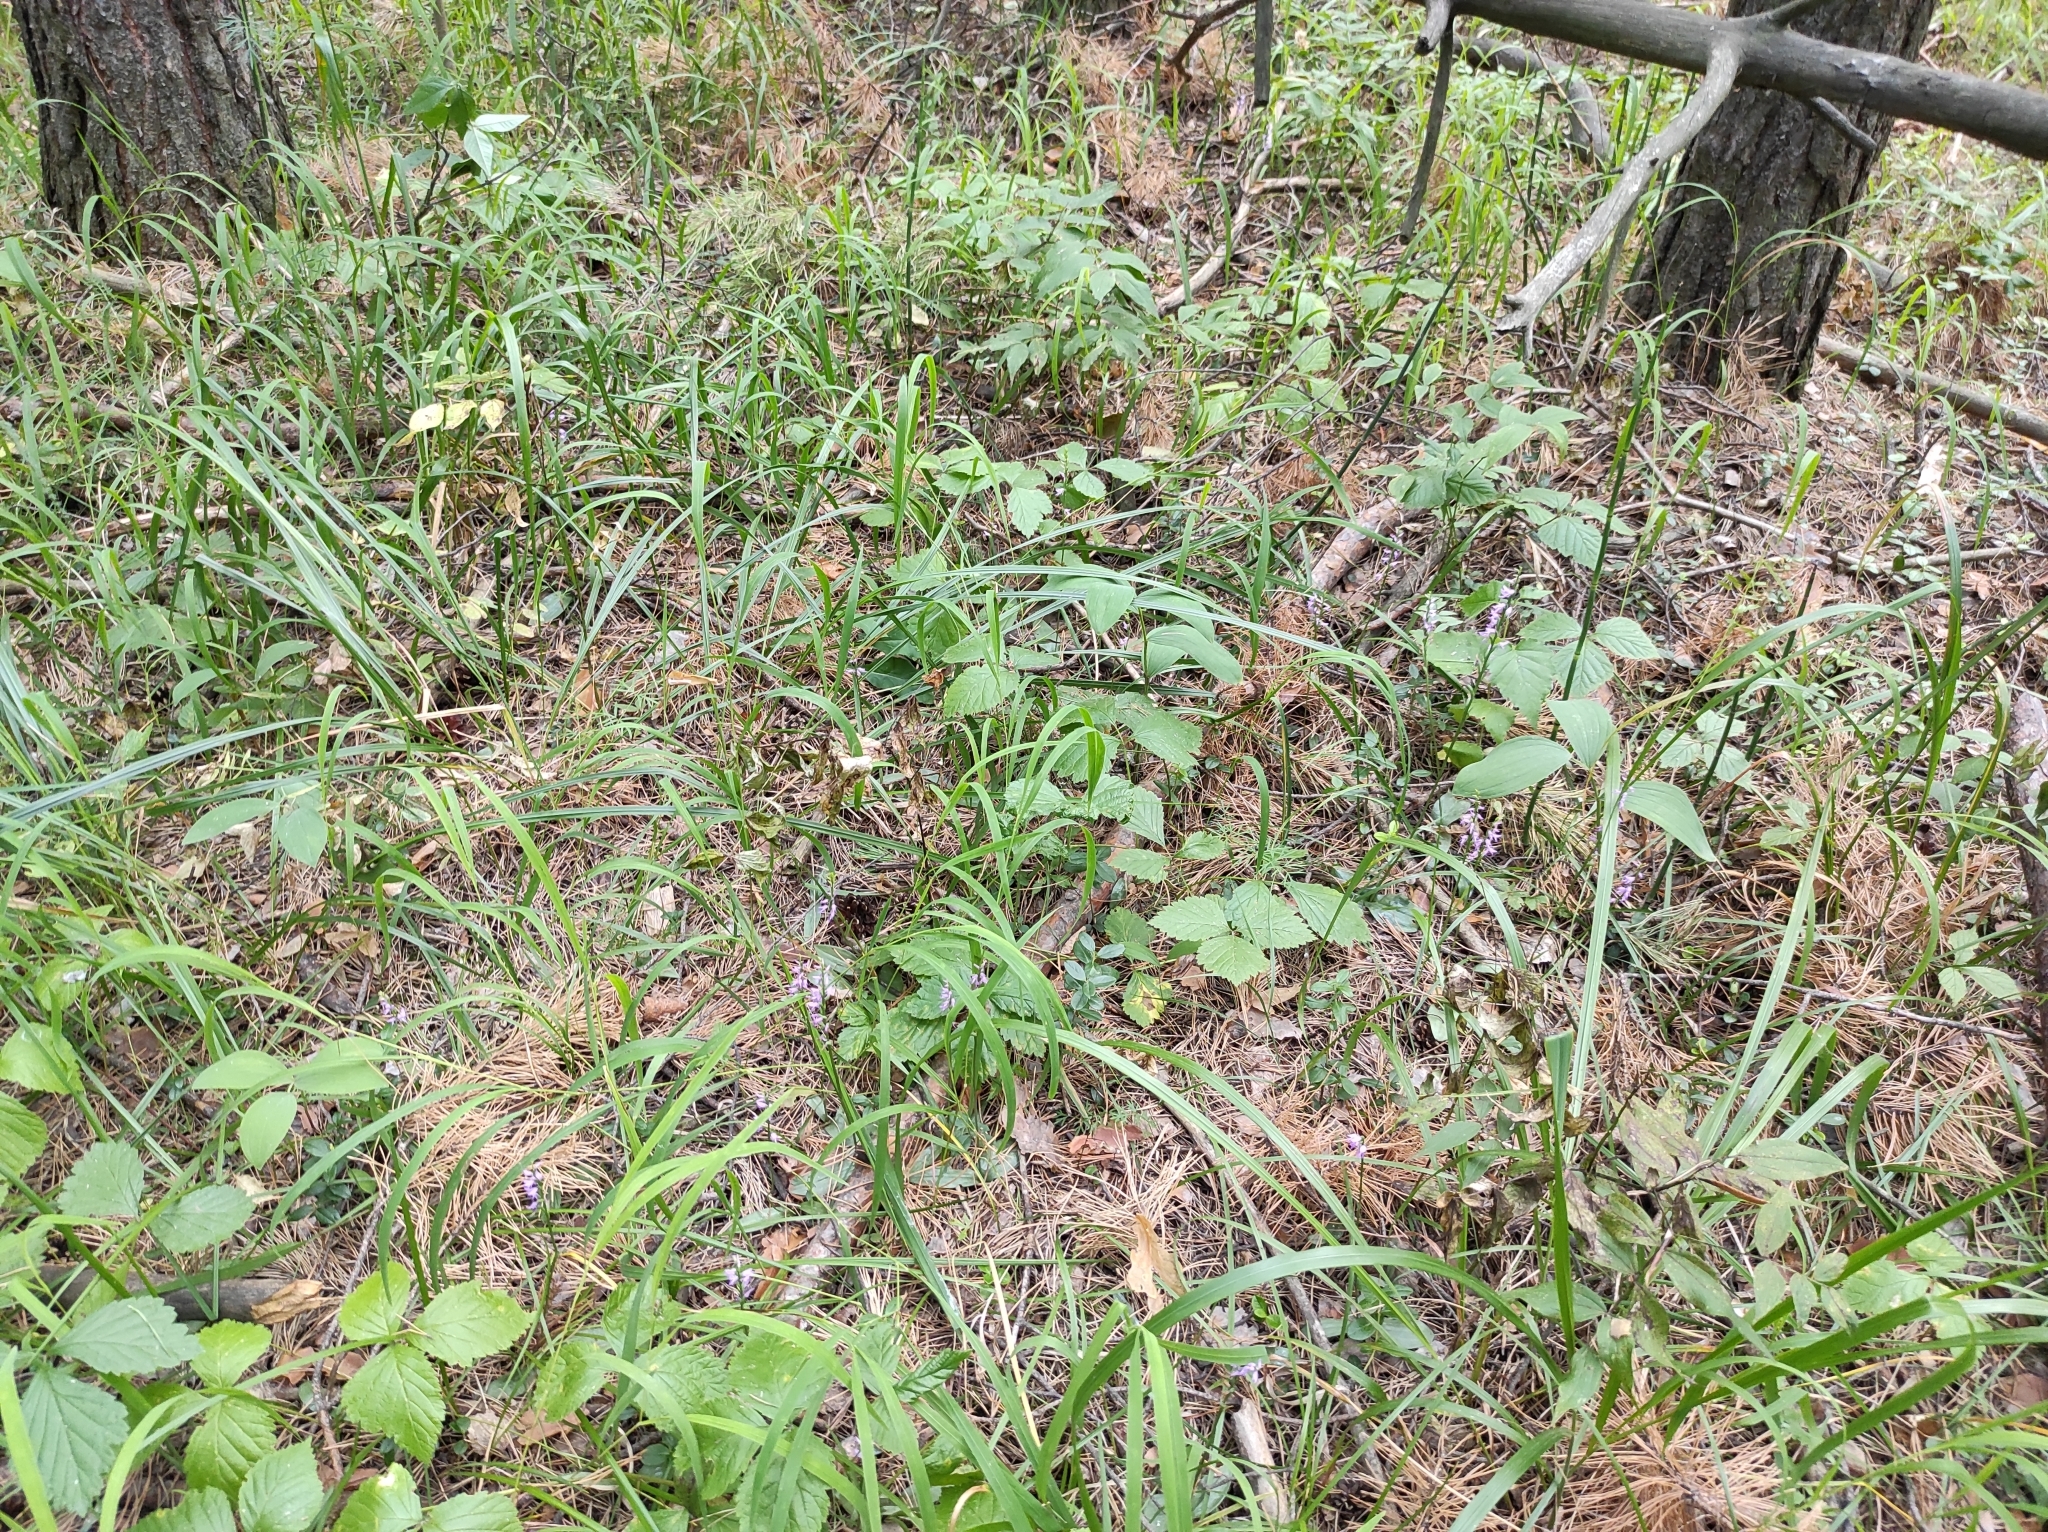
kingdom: Plantae
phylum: Tracheophyta
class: Liliopsida
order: Asparagales
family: Orchidaceae
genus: Hemipilia
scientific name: Hemipilia cucullata
